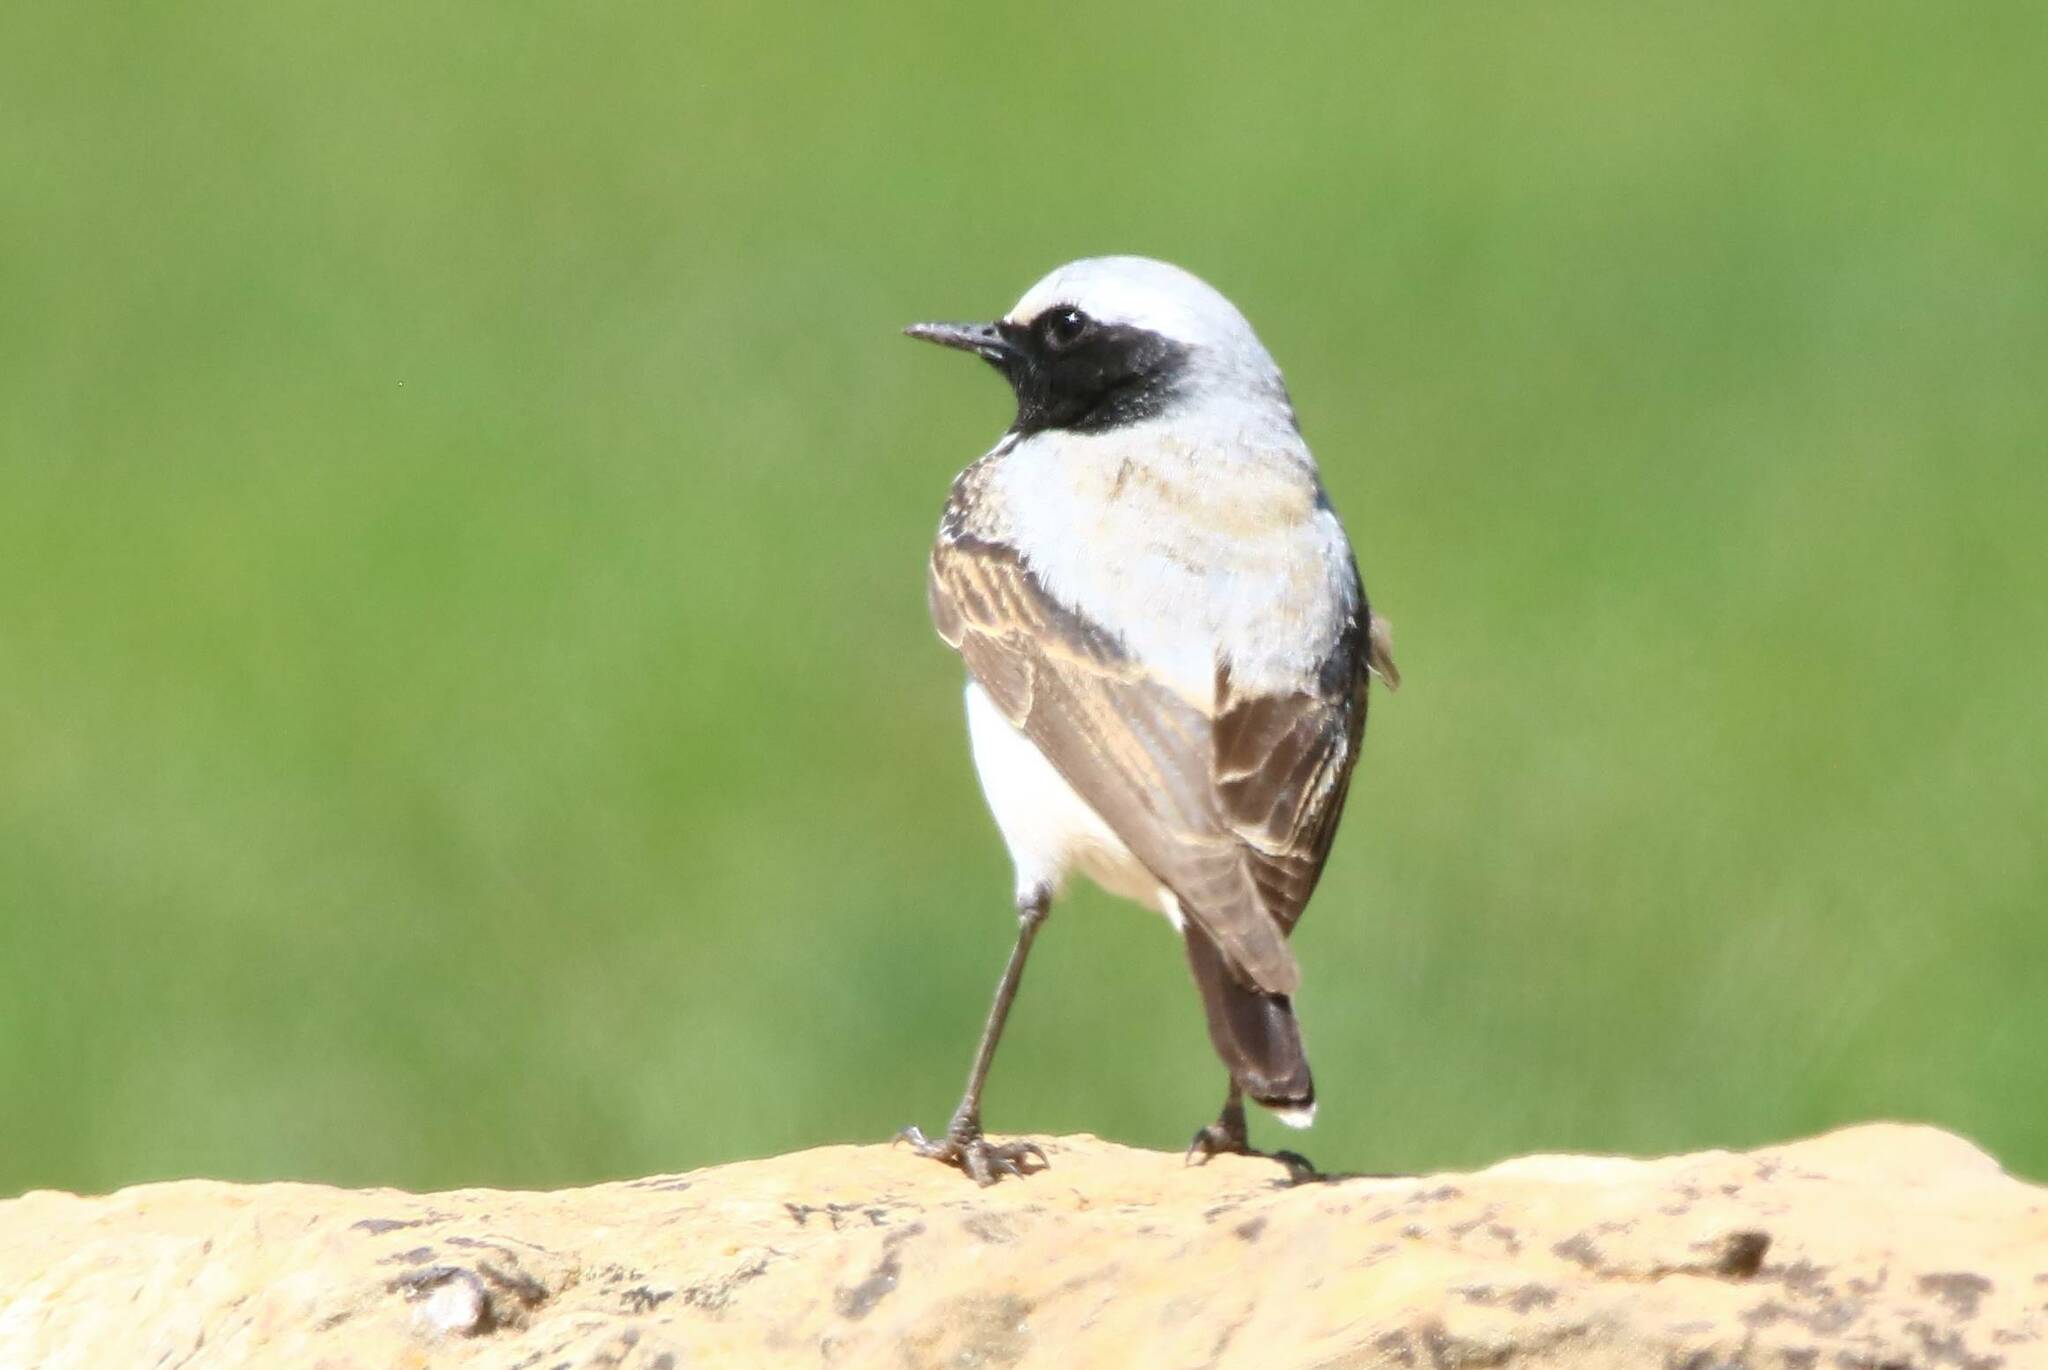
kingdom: Animalia
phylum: Chordata
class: Aves
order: Passeriformes
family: Muscicapidae
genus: Oenanthe
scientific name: Oenanthe oenanthe
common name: Northern wheatear
